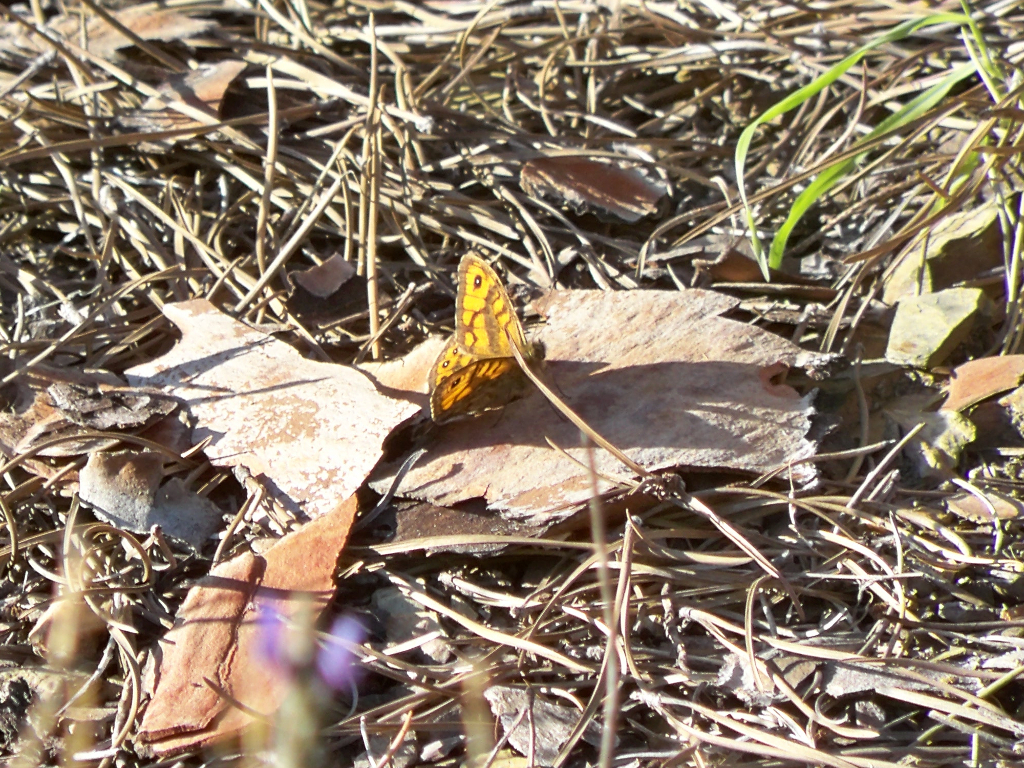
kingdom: Animalia
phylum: Arthropoda
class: Insecta
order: Lepidoptera
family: Nymphalidae
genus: Pararge
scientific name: Pararge Lasiommata megera
